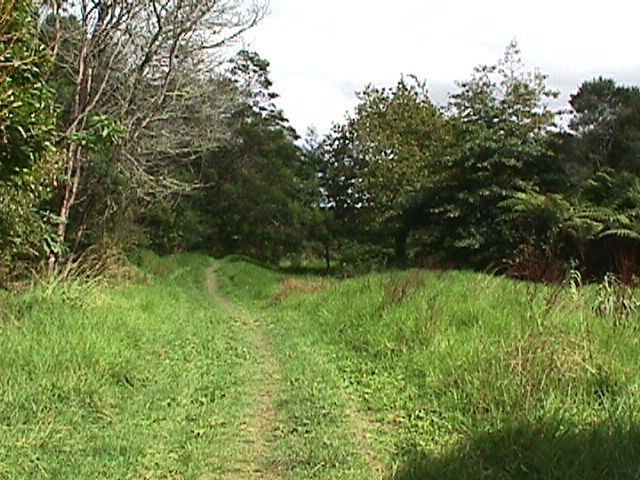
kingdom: Plantae
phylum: Tracheophyta
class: Liliopsida
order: Poales
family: Poaceae
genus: Cenchrus
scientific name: Cenchrus clandestinus
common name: Kikuyugrass
